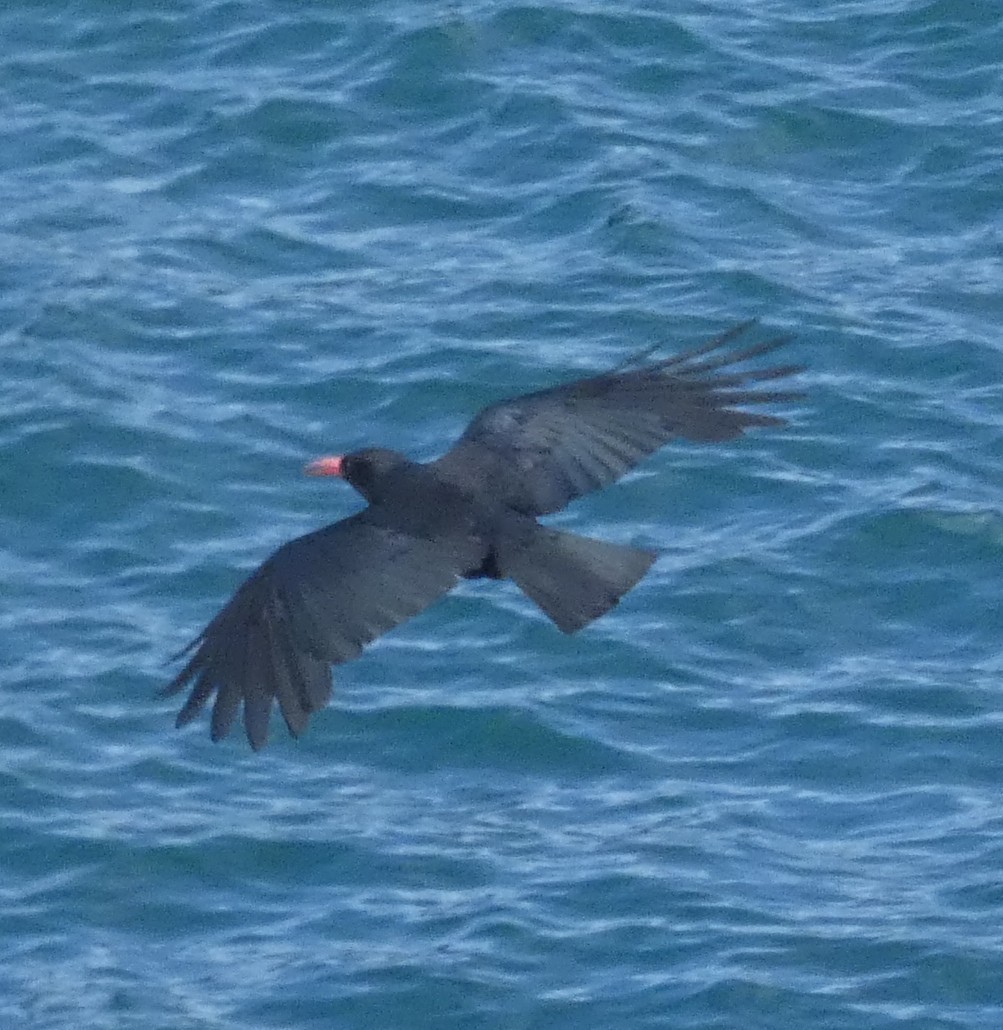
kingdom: Animalia
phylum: Chordata
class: Aves
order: Passeriformes
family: Corvidae
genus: Pyrrhocorax
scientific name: Pyrrhocorax pyrrhocorax
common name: Red-billed chough
